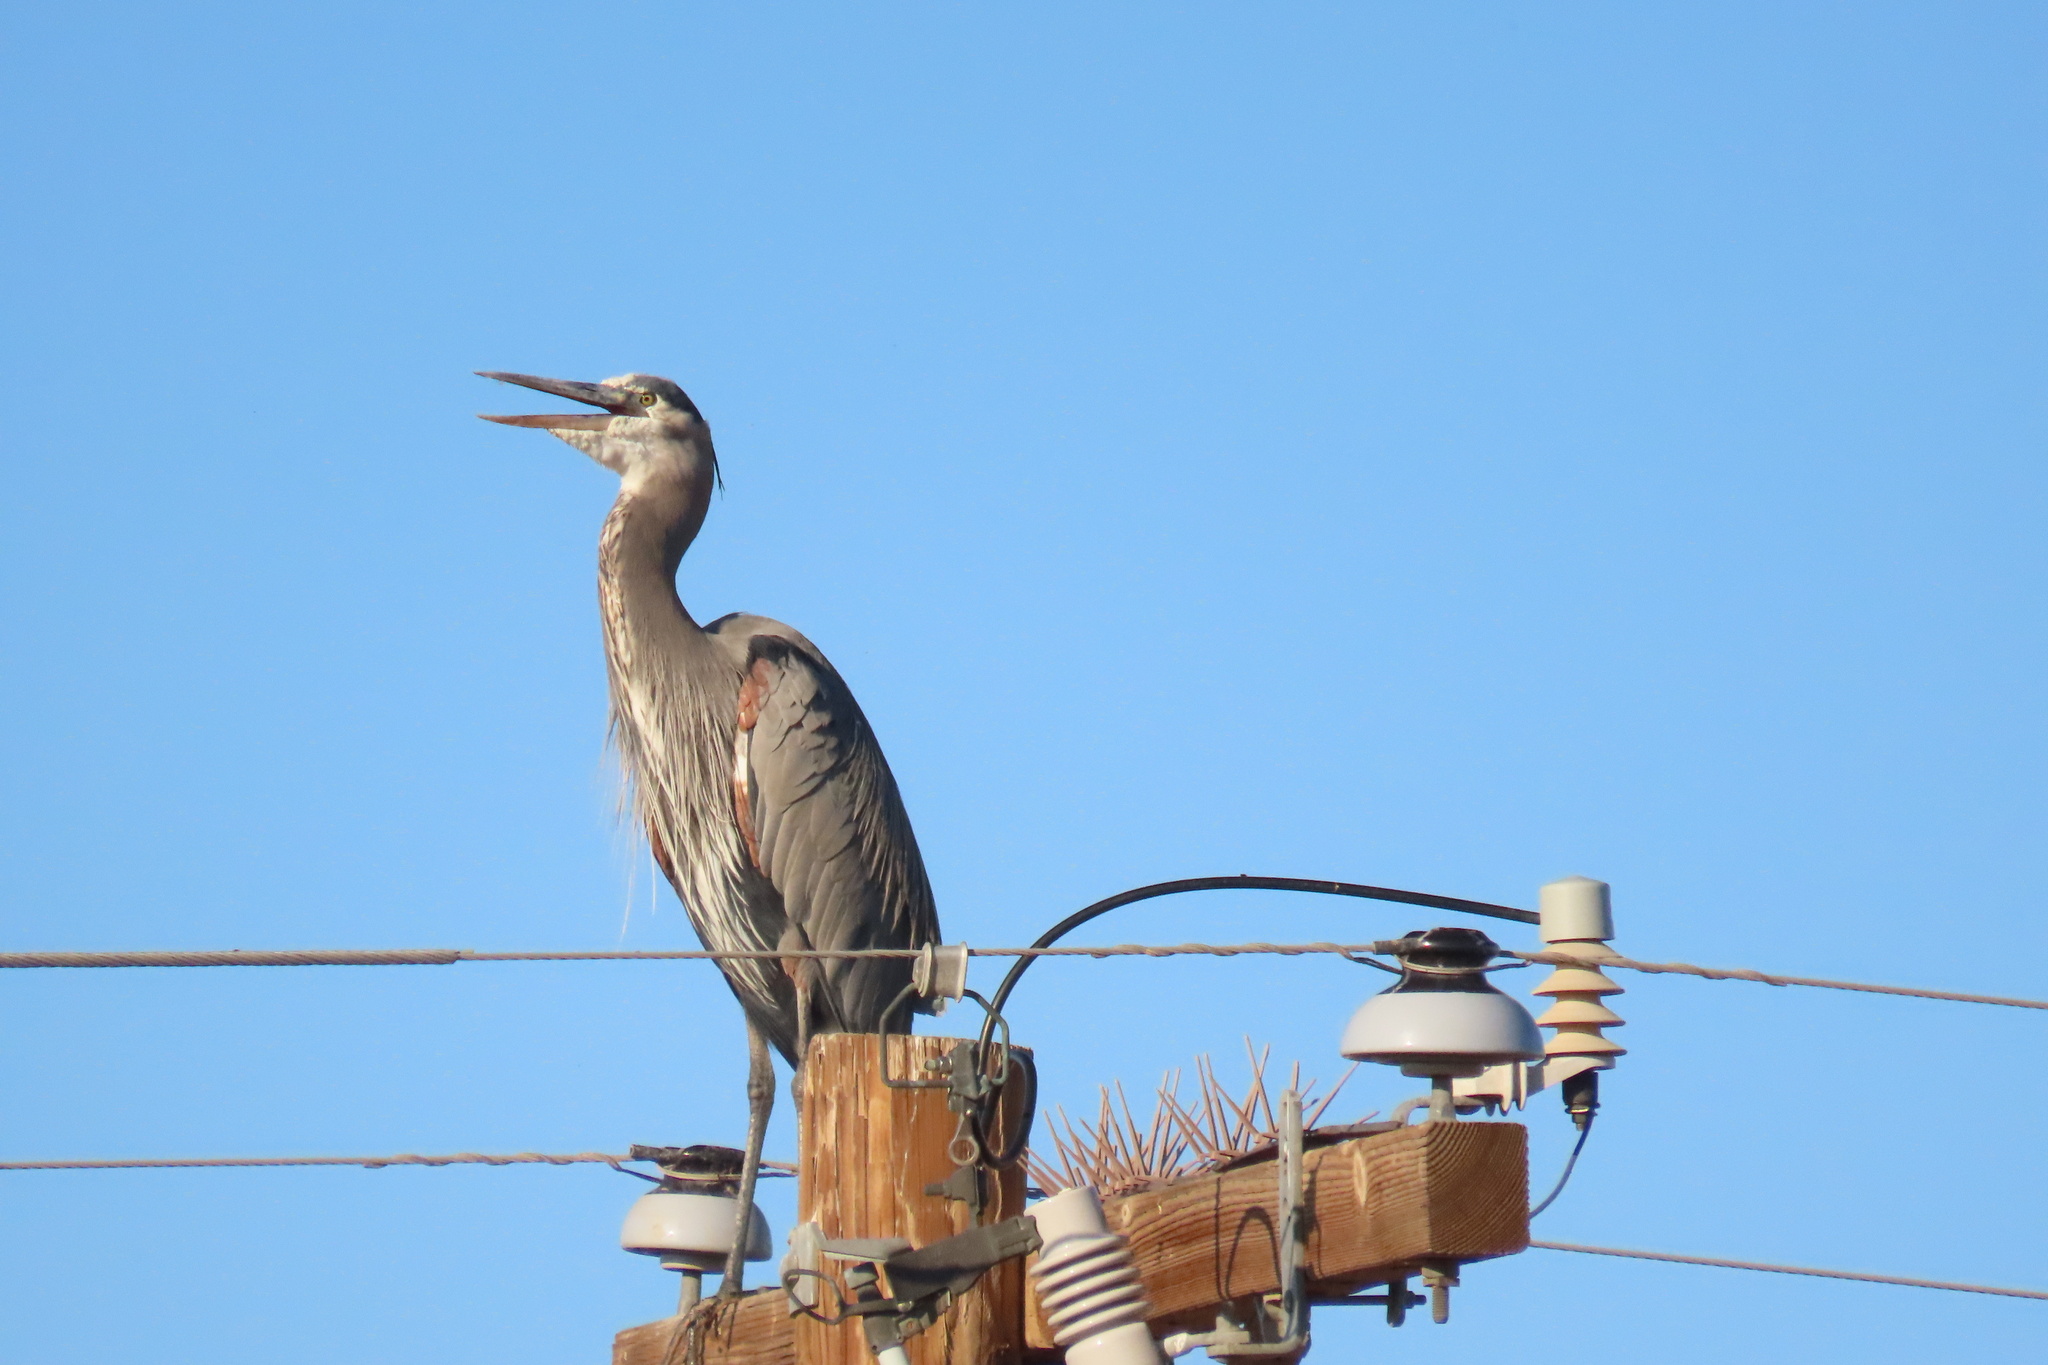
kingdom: Animalia
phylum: Chordata
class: Aves
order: Pelecaniformes
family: Ardeidae
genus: Ardea
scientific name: Ardea herodias
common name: Great blue heron
